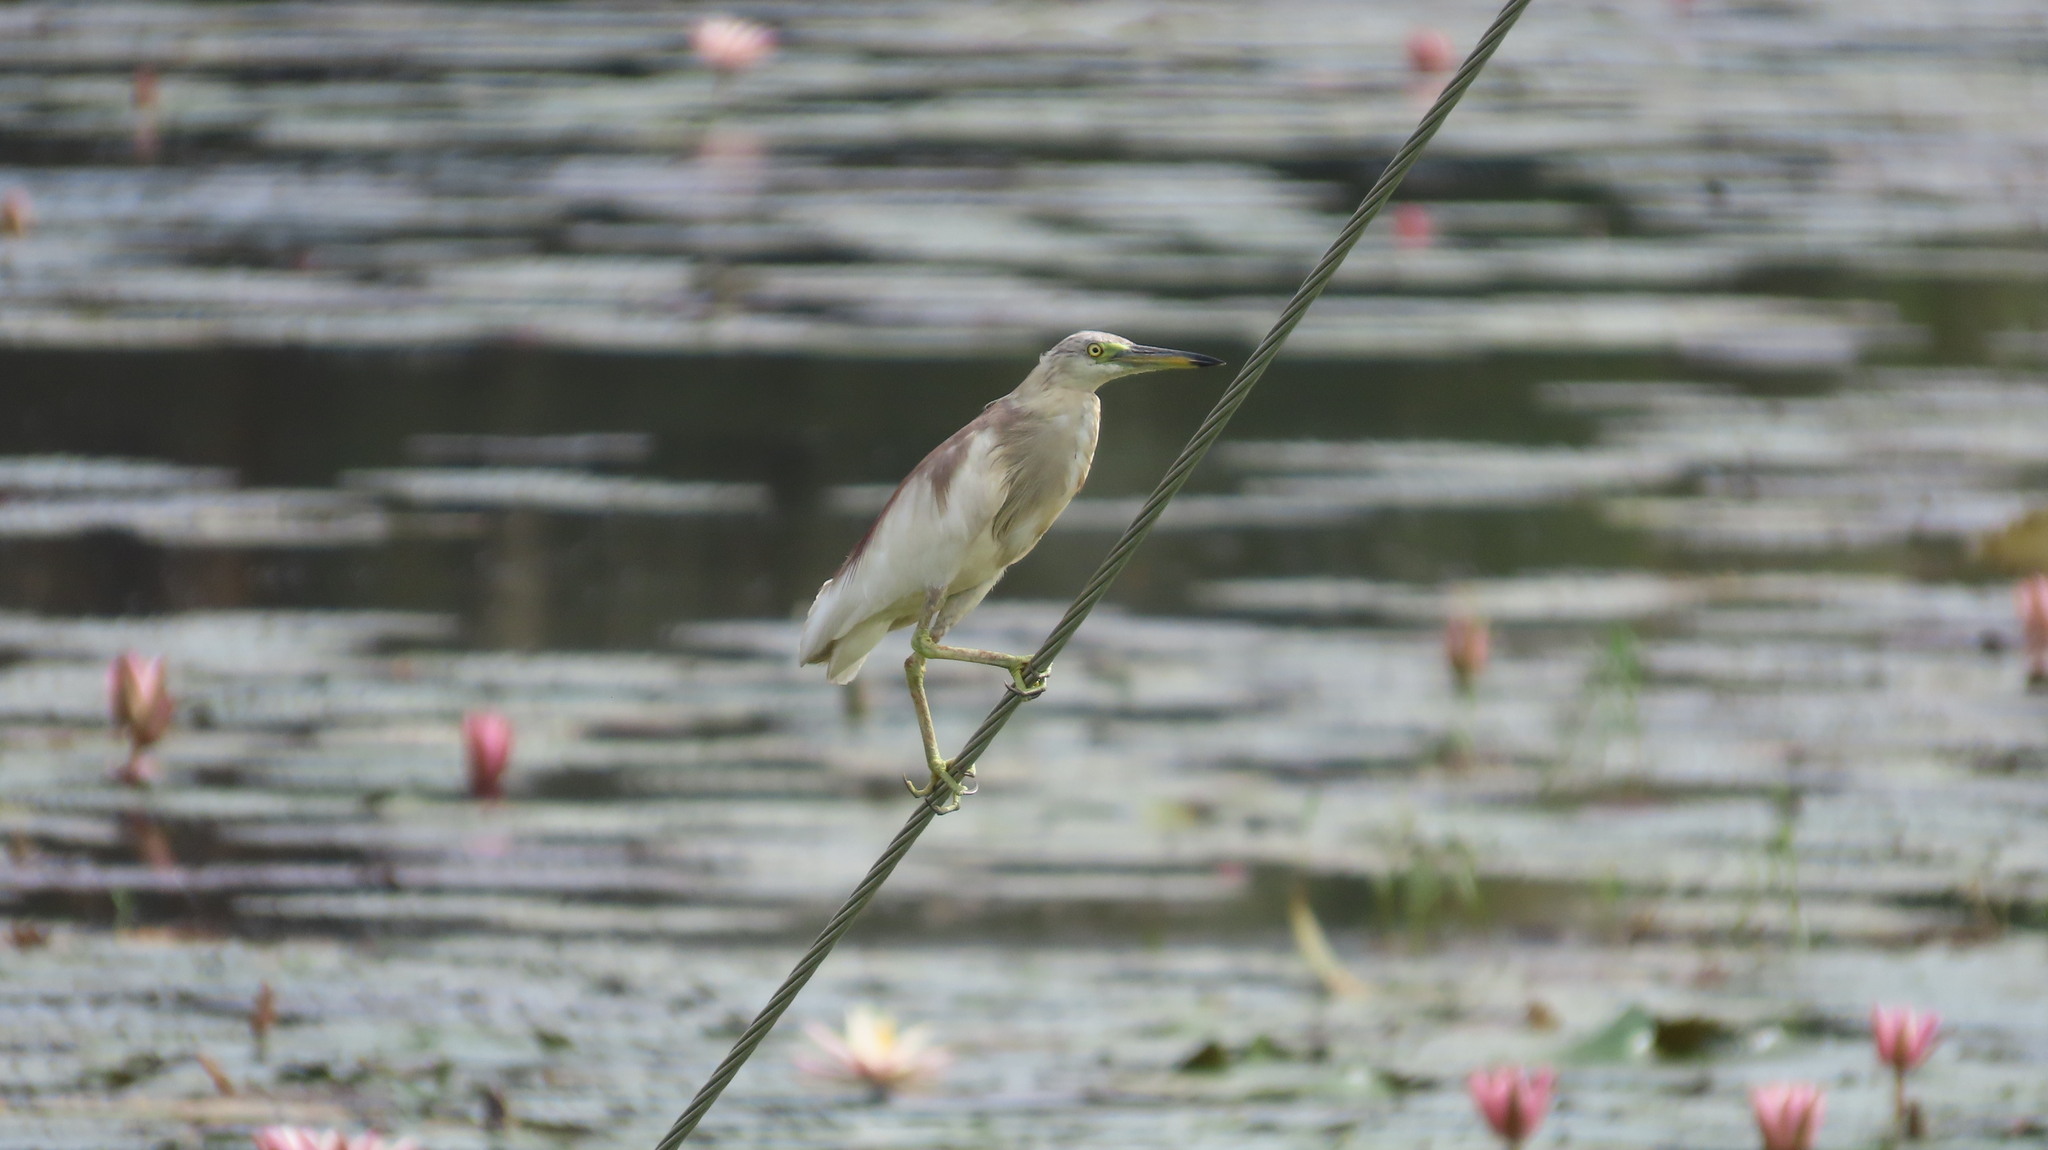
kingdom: Animalia
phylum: Chordata
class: Aves
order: Pelecaniformes
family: Ardeidae
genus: Ardeola
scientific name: Ardeola grayii
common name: Indian pond heron
